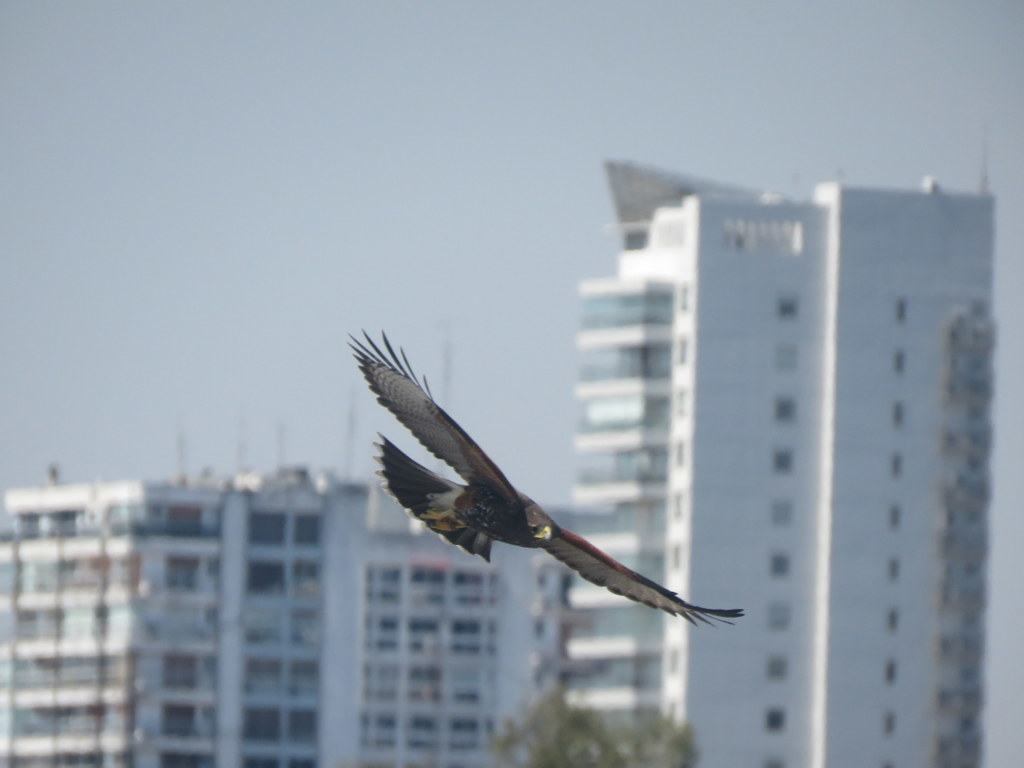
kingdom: Animalia
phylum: Chordata
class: Aves
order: Accipitriformes
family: Accipitridae
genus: Parabuteo
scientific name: Parabuteo unicinctus
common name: Harris's hawk
